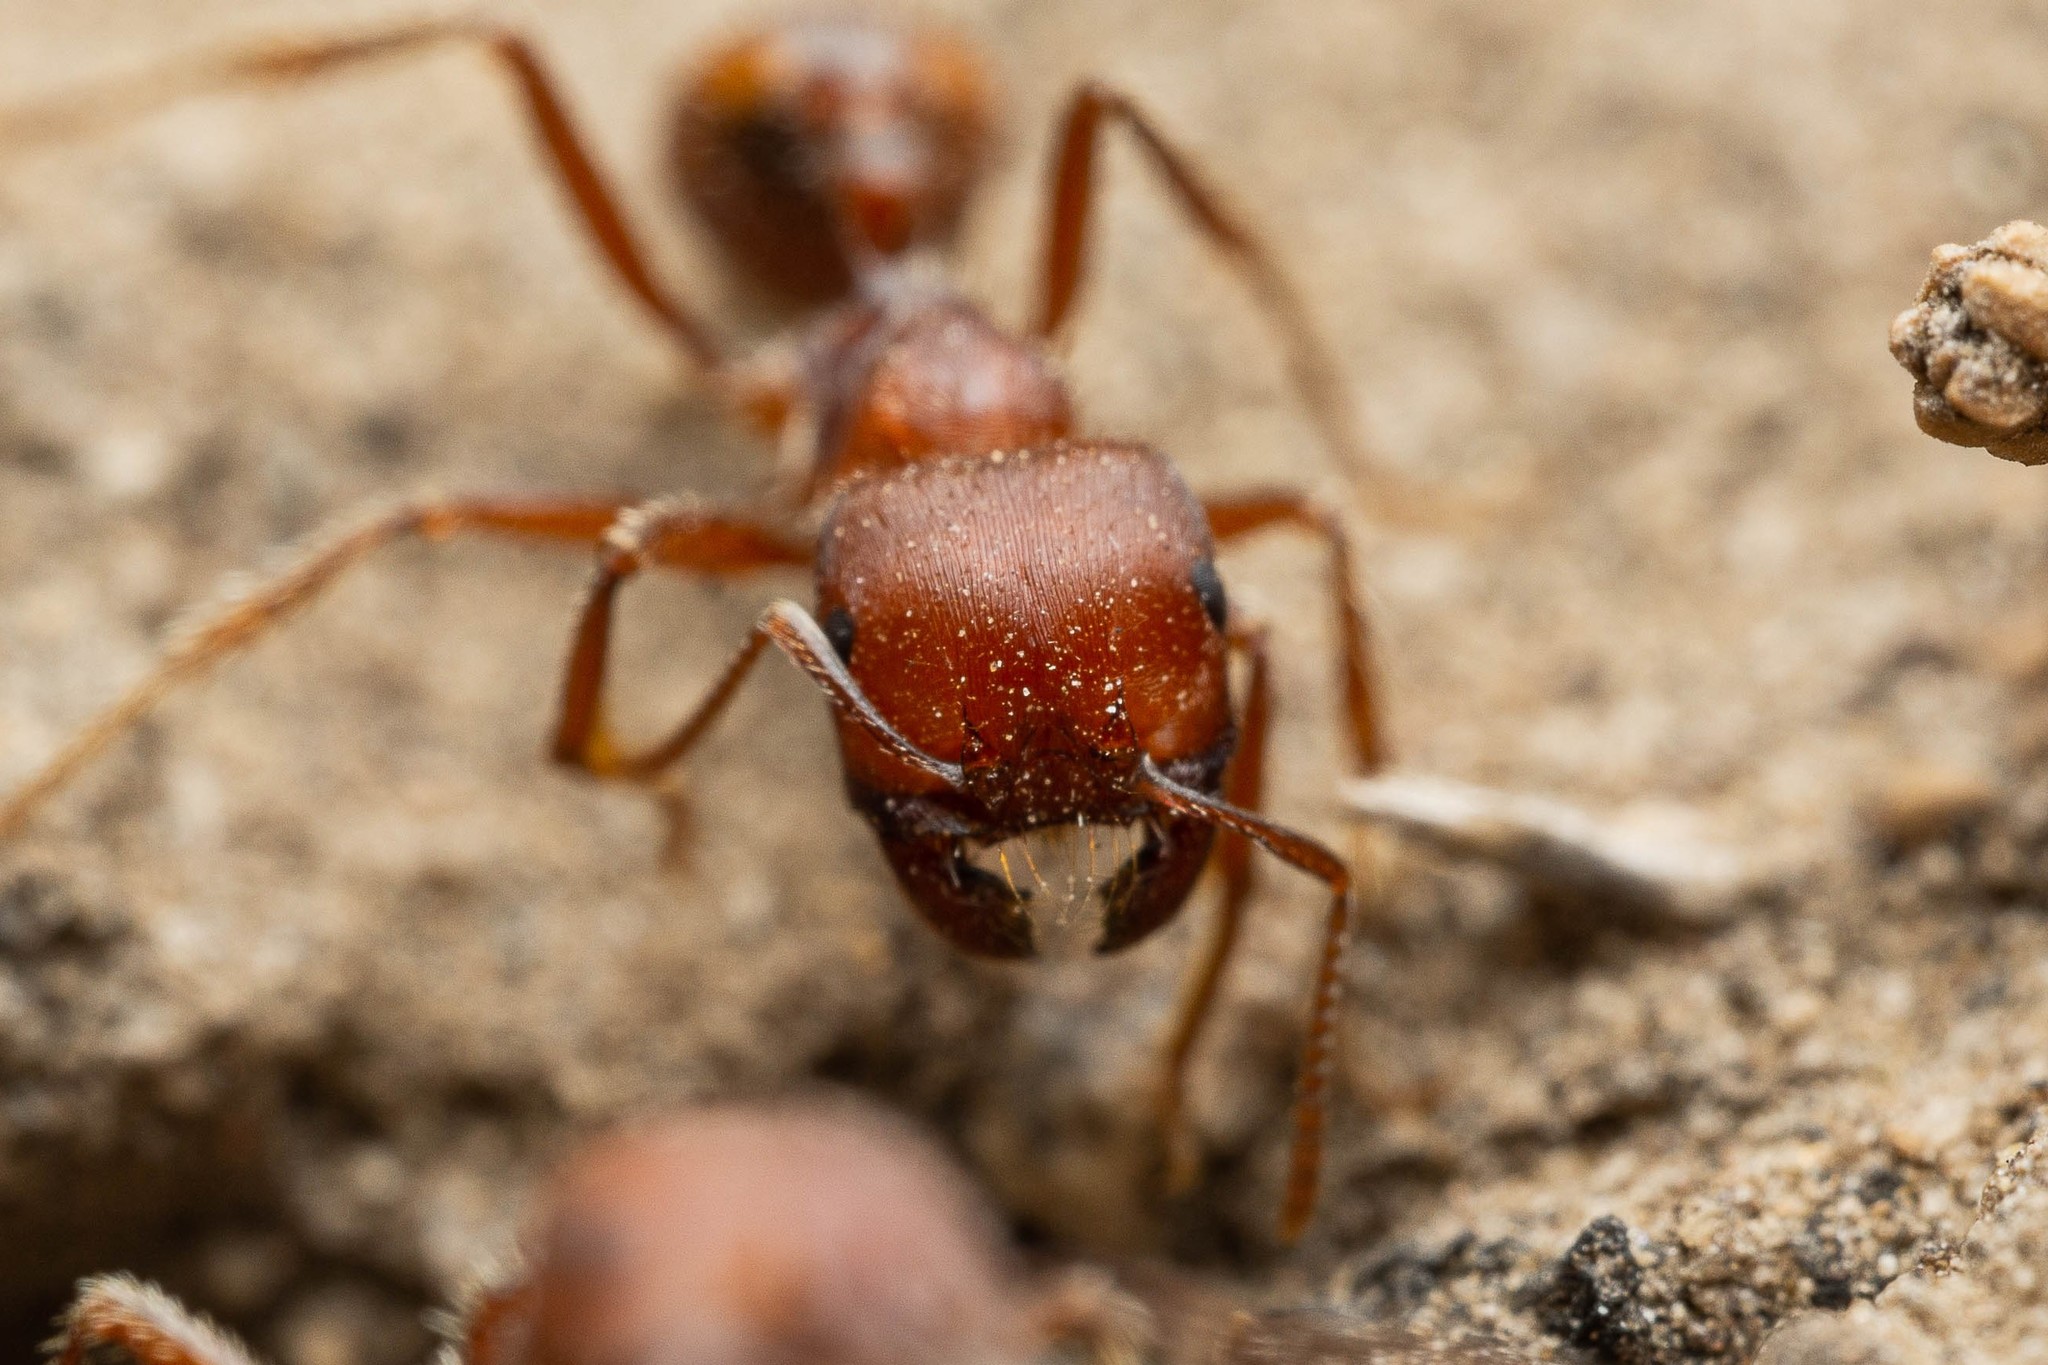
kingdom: Animalia
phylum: Arthropoda
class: Insecta
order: Hymenoptera
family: Formicidae
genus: Pogonomyrmex
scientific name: Pogonomyrmex barbatus
